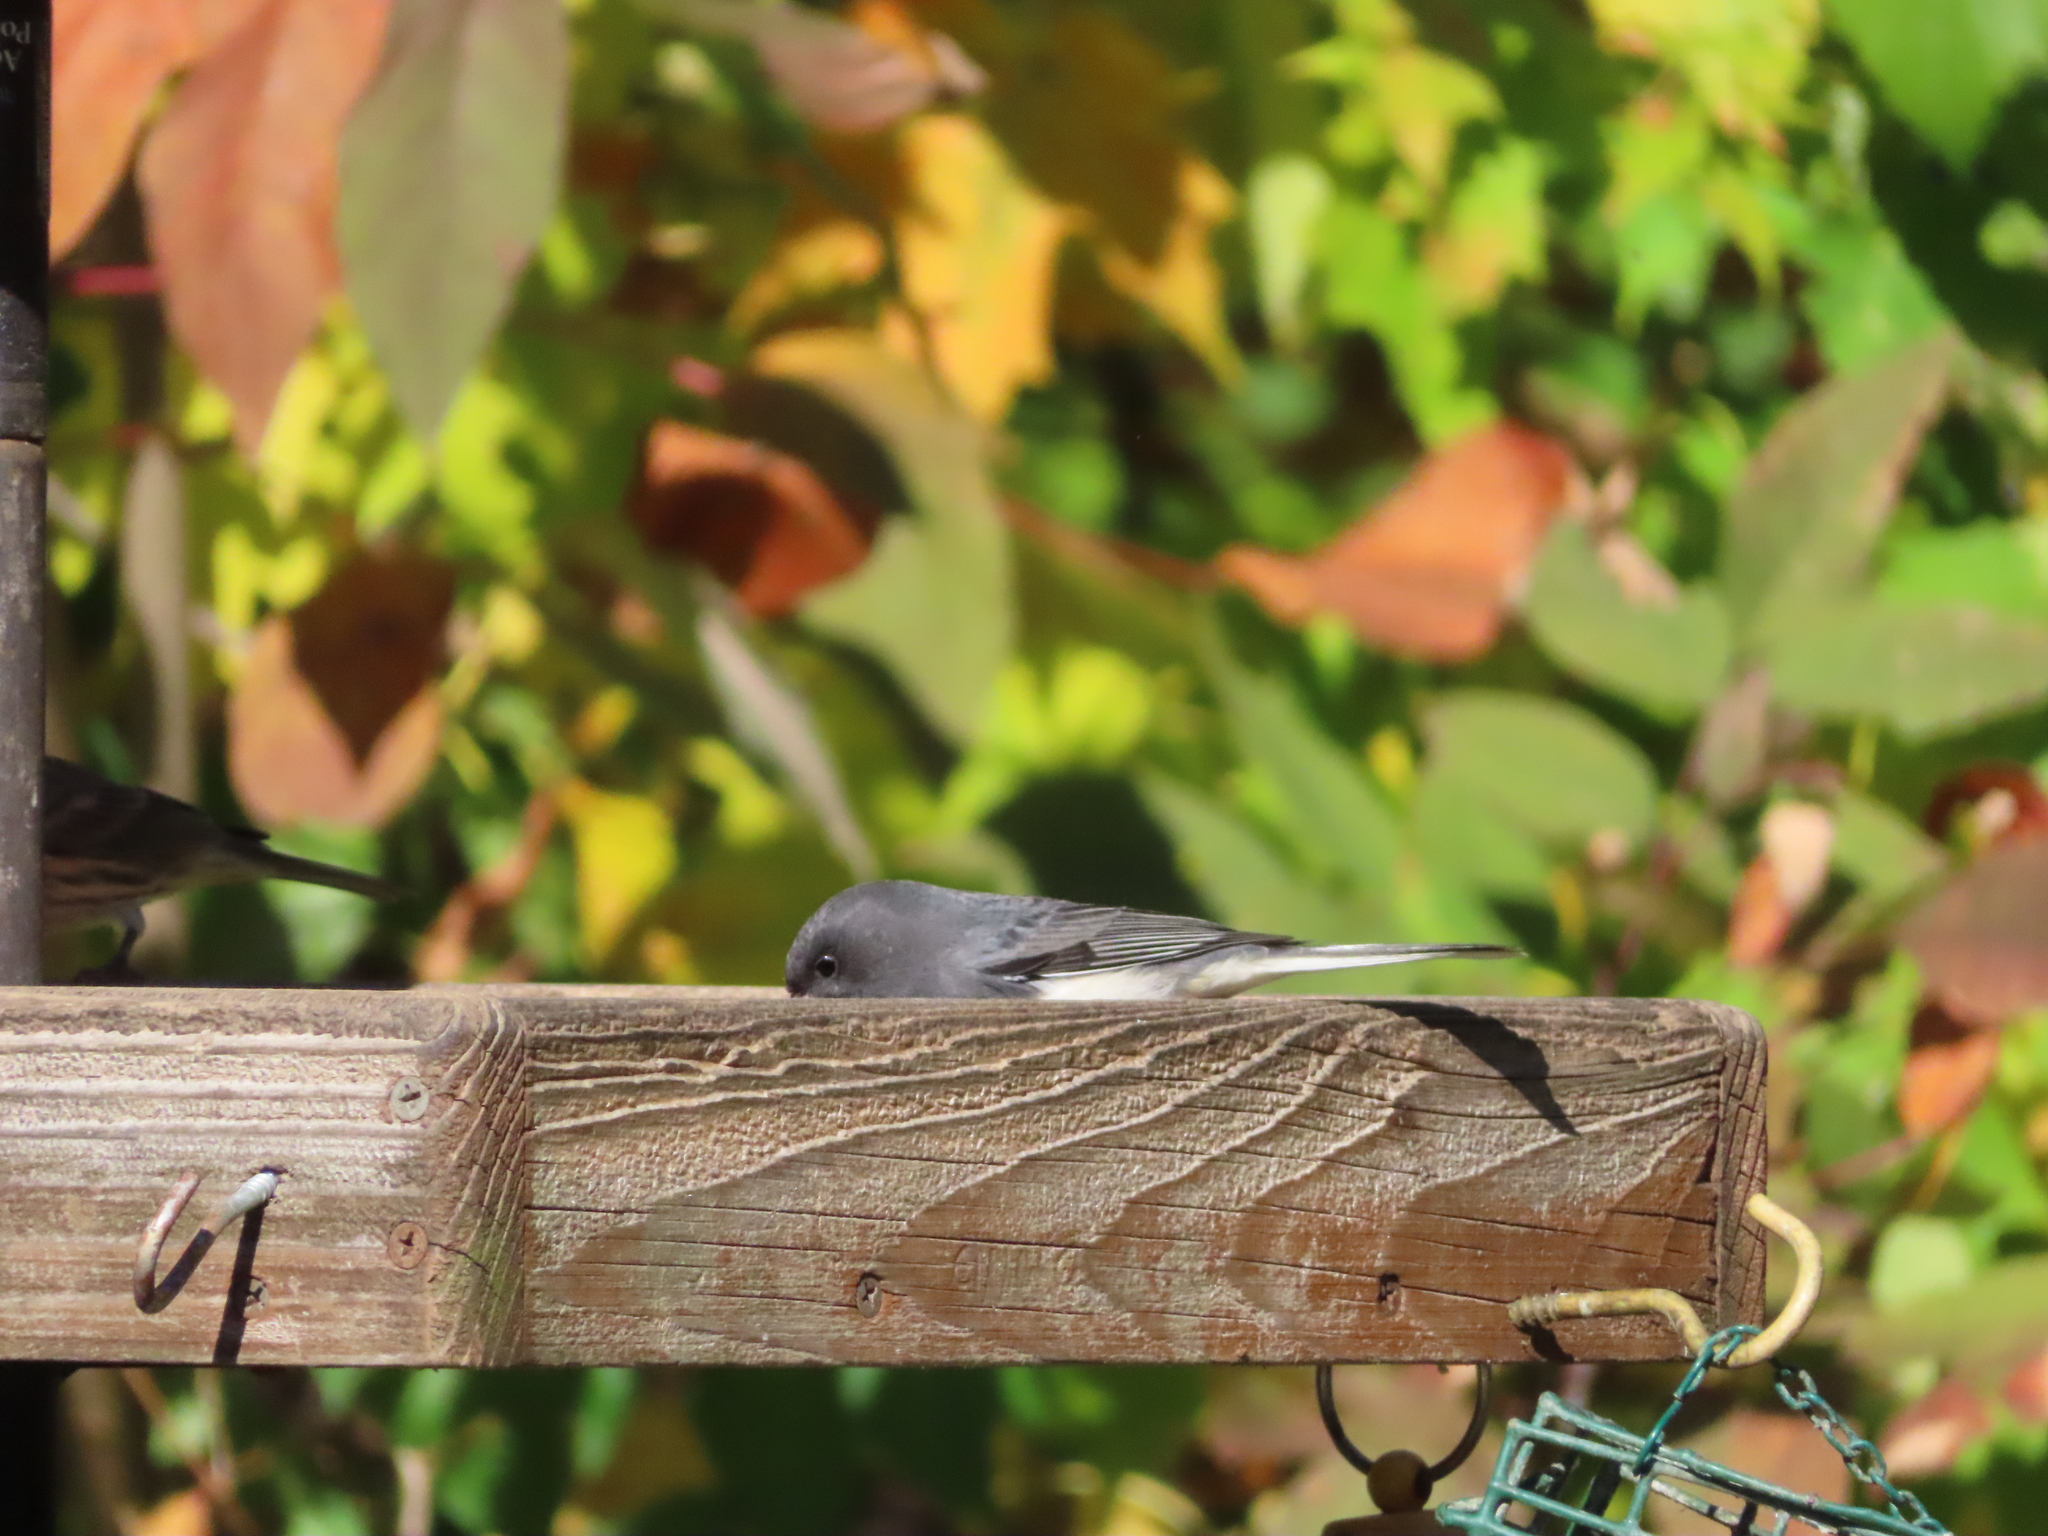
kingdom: Animalia
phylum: Chordata
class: Aves
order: Passeriformes
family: Passerellidae
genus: Junco
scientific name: Junco hyemalis
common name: Dark-eyed junco
